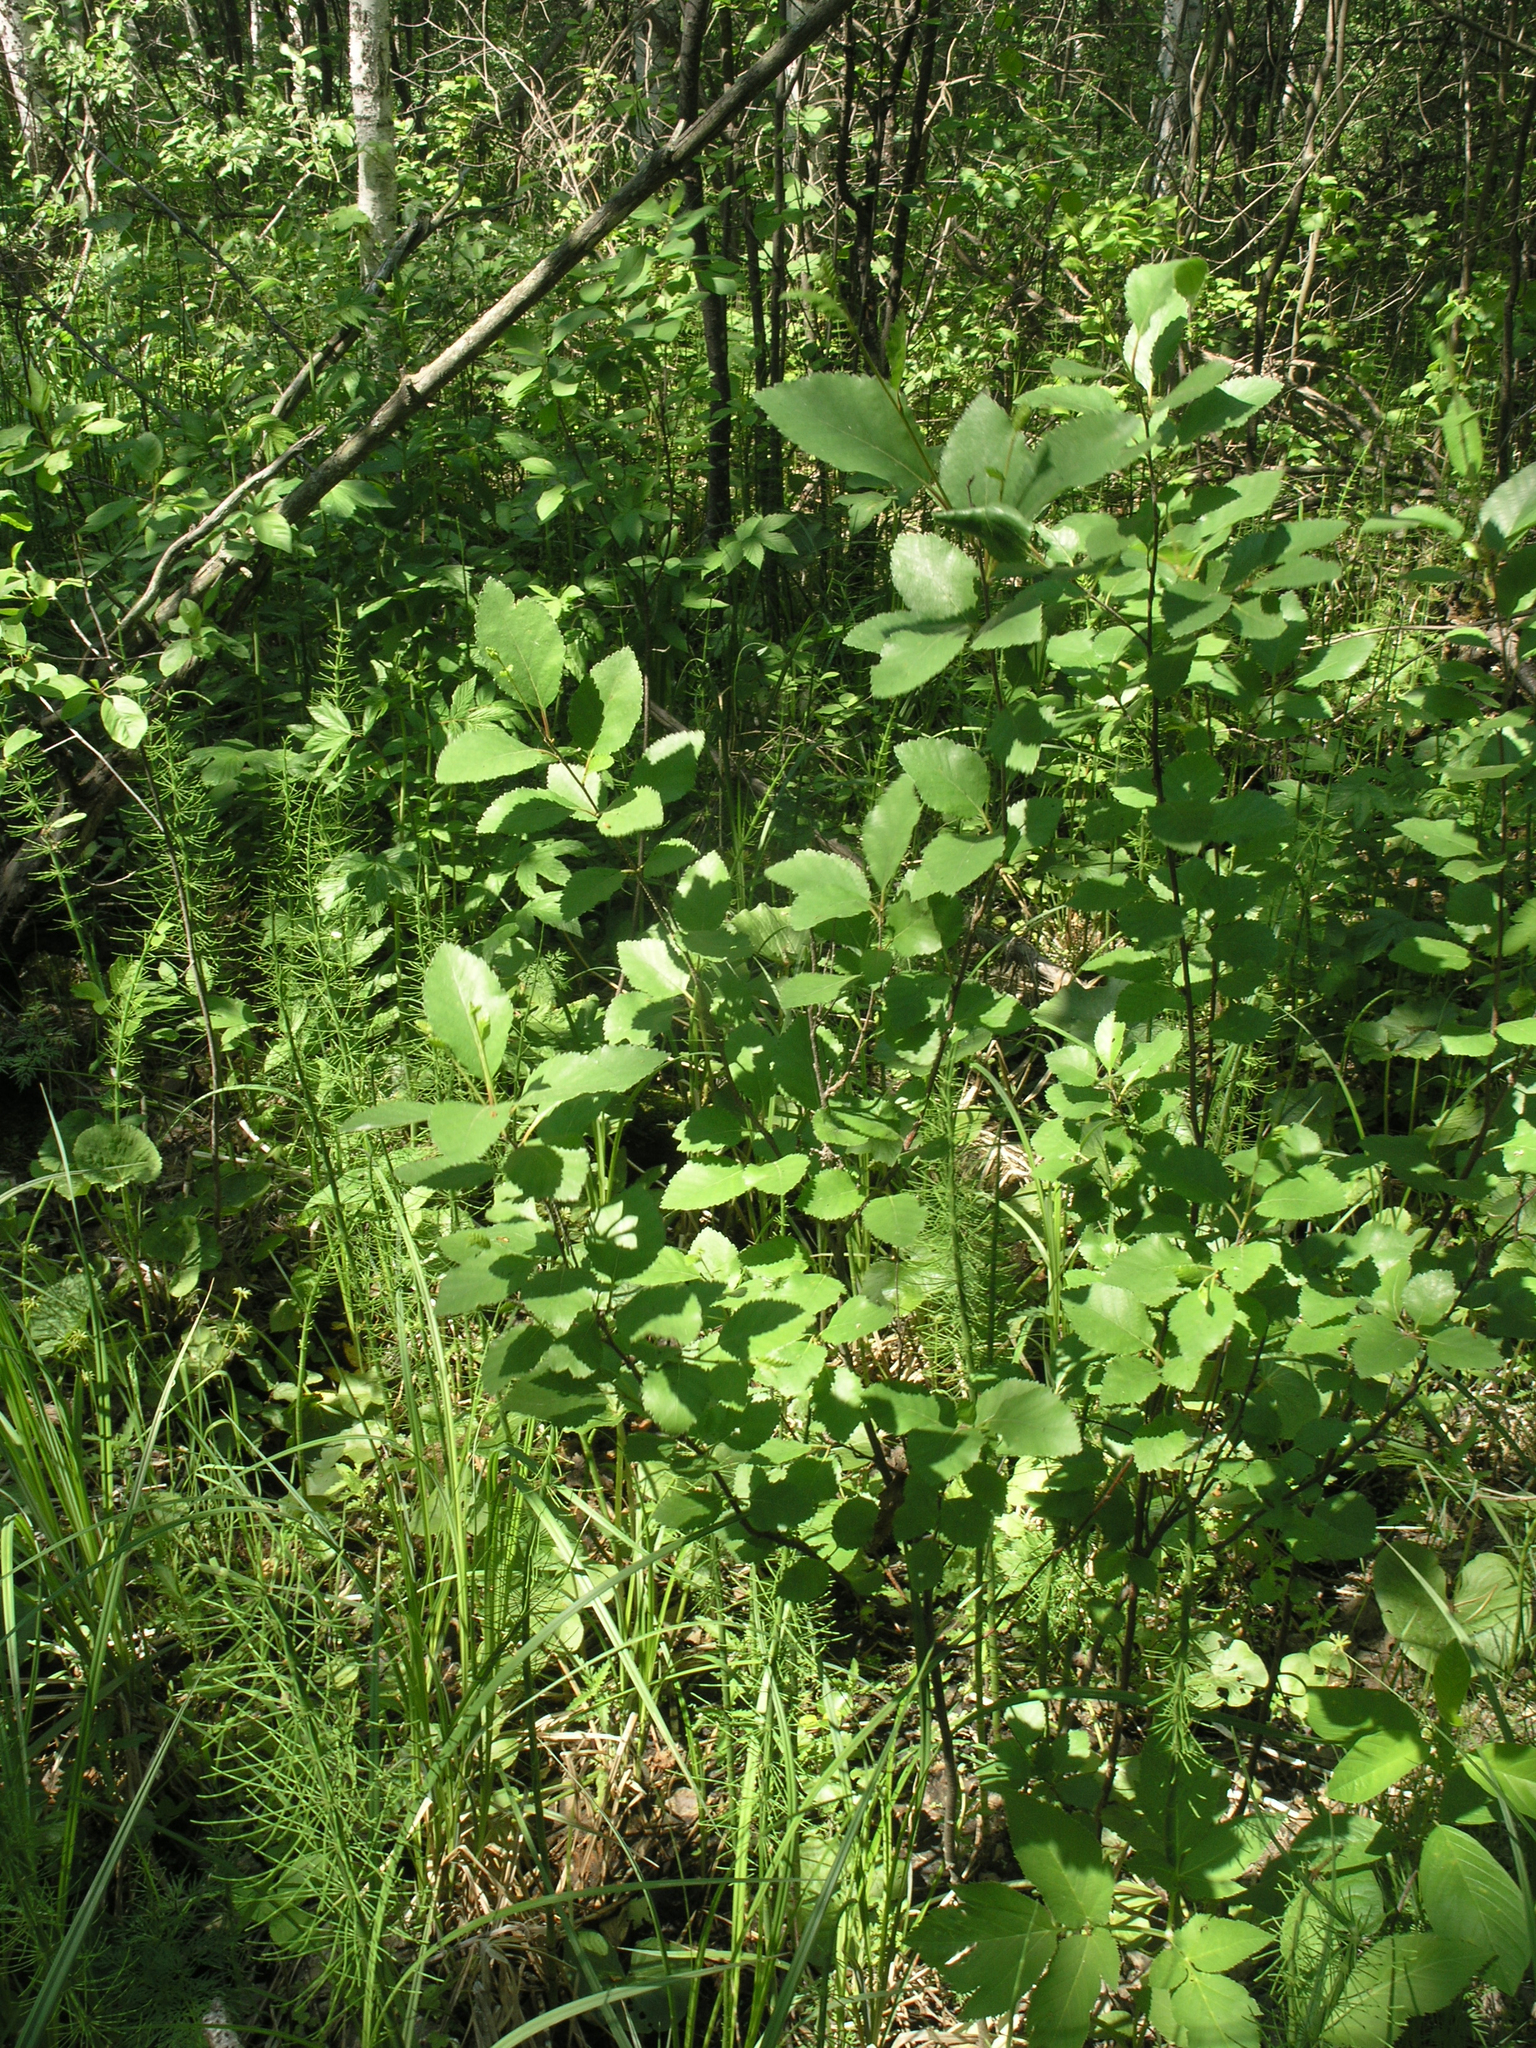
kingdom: Plantae
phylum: Tracheophyta
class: Magnoliopsida
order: Fagales
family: Betulaceae
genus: Betula
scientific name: Betula fruticosa
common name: Japanese bog birch
